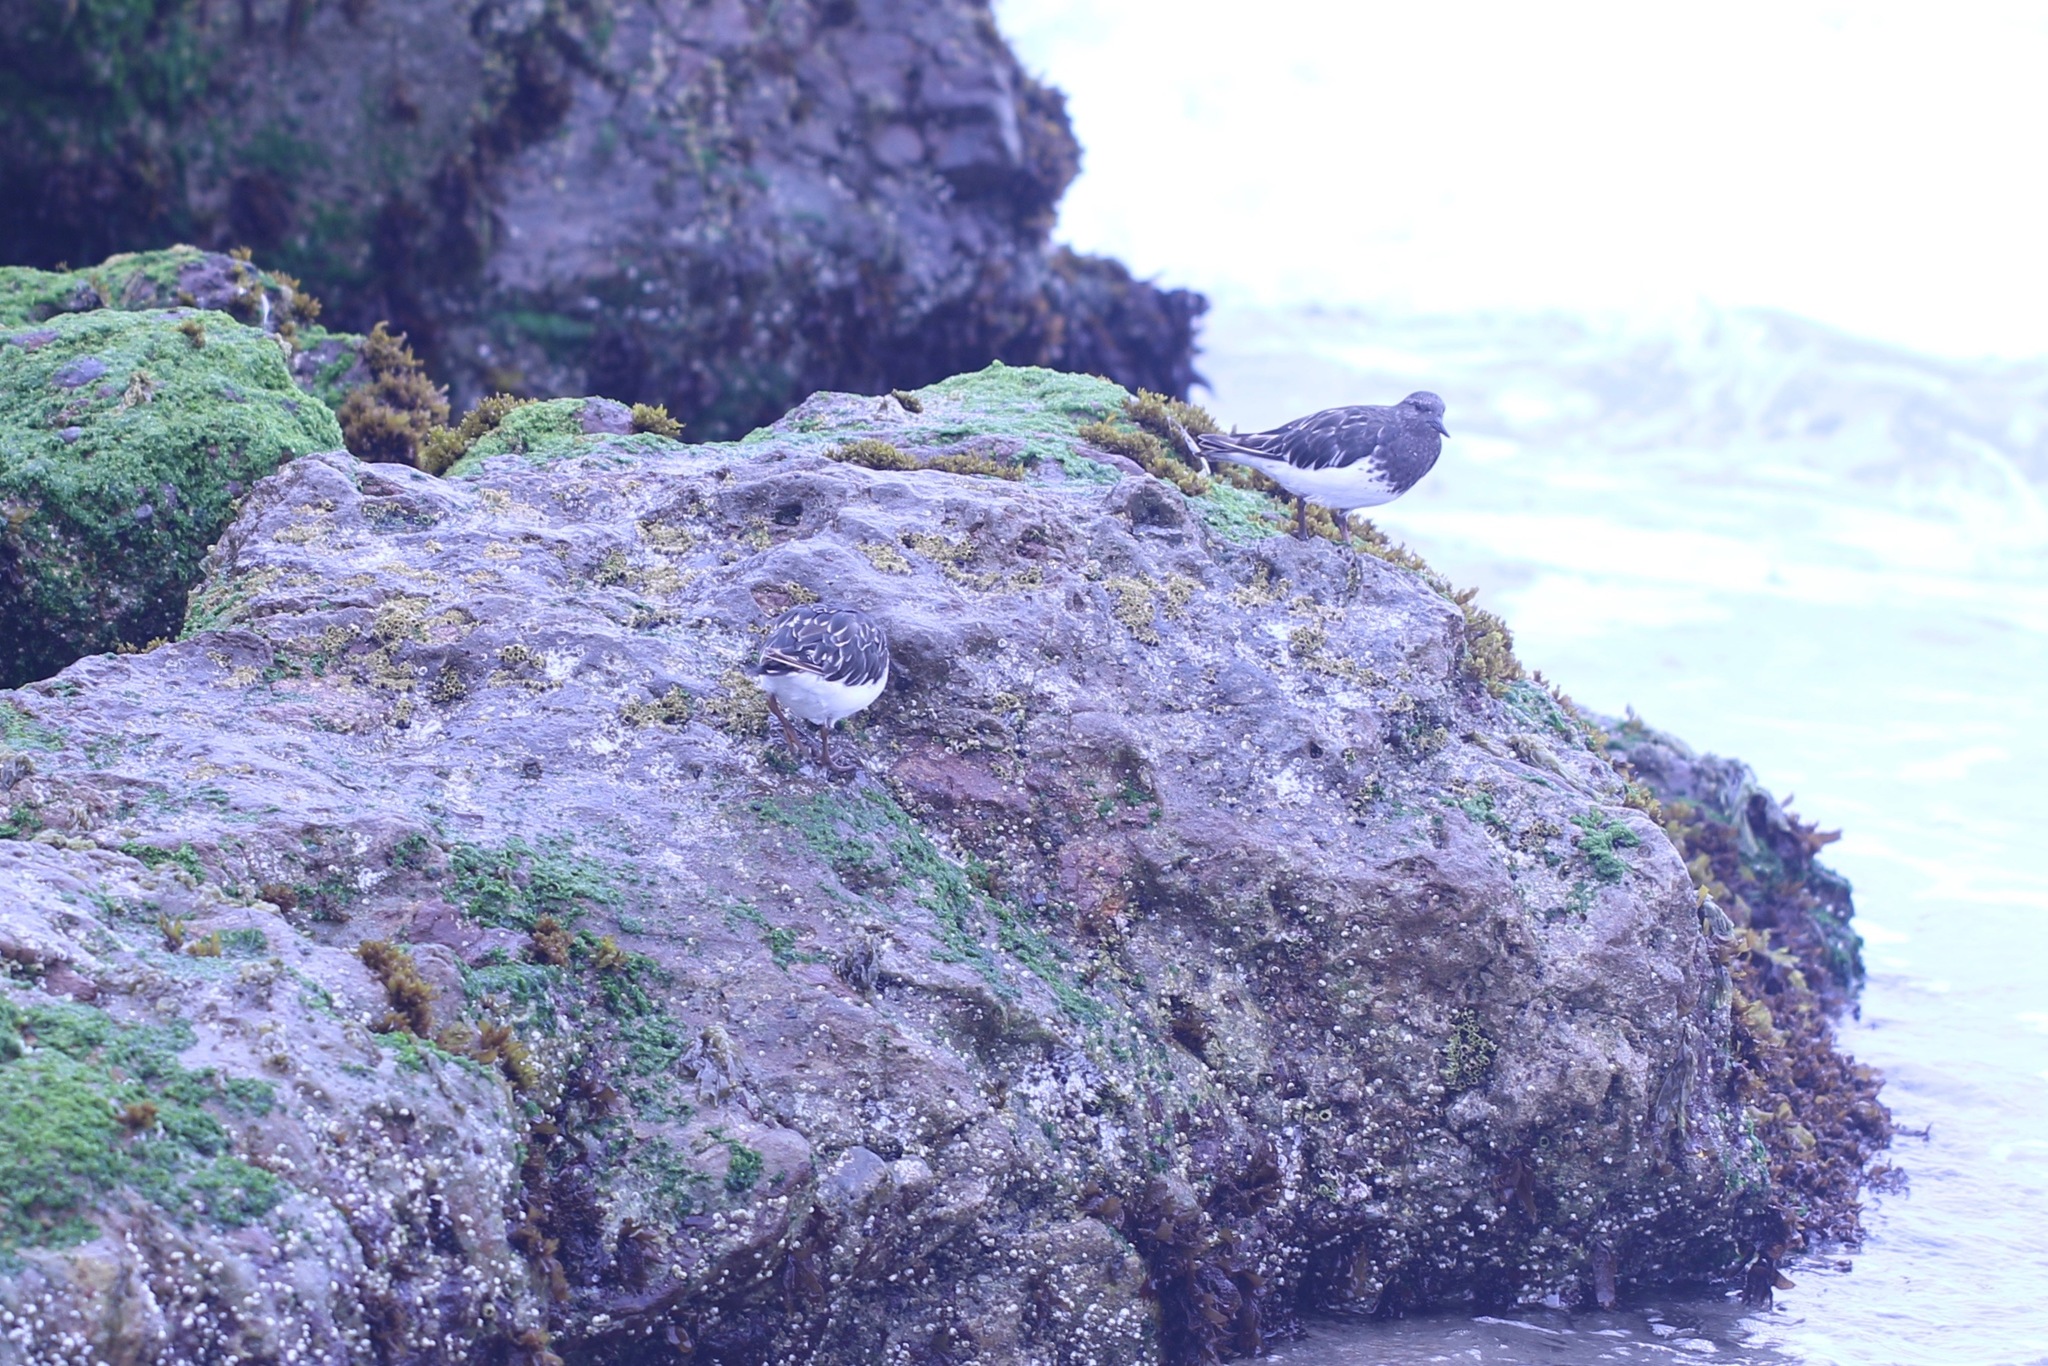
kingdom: Animalia
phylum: Chordata
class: Aves
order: Charadriiformes
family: Scolopacidae
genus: Arenaria
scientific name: Arenaria melanocephala
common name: Black turnstone
